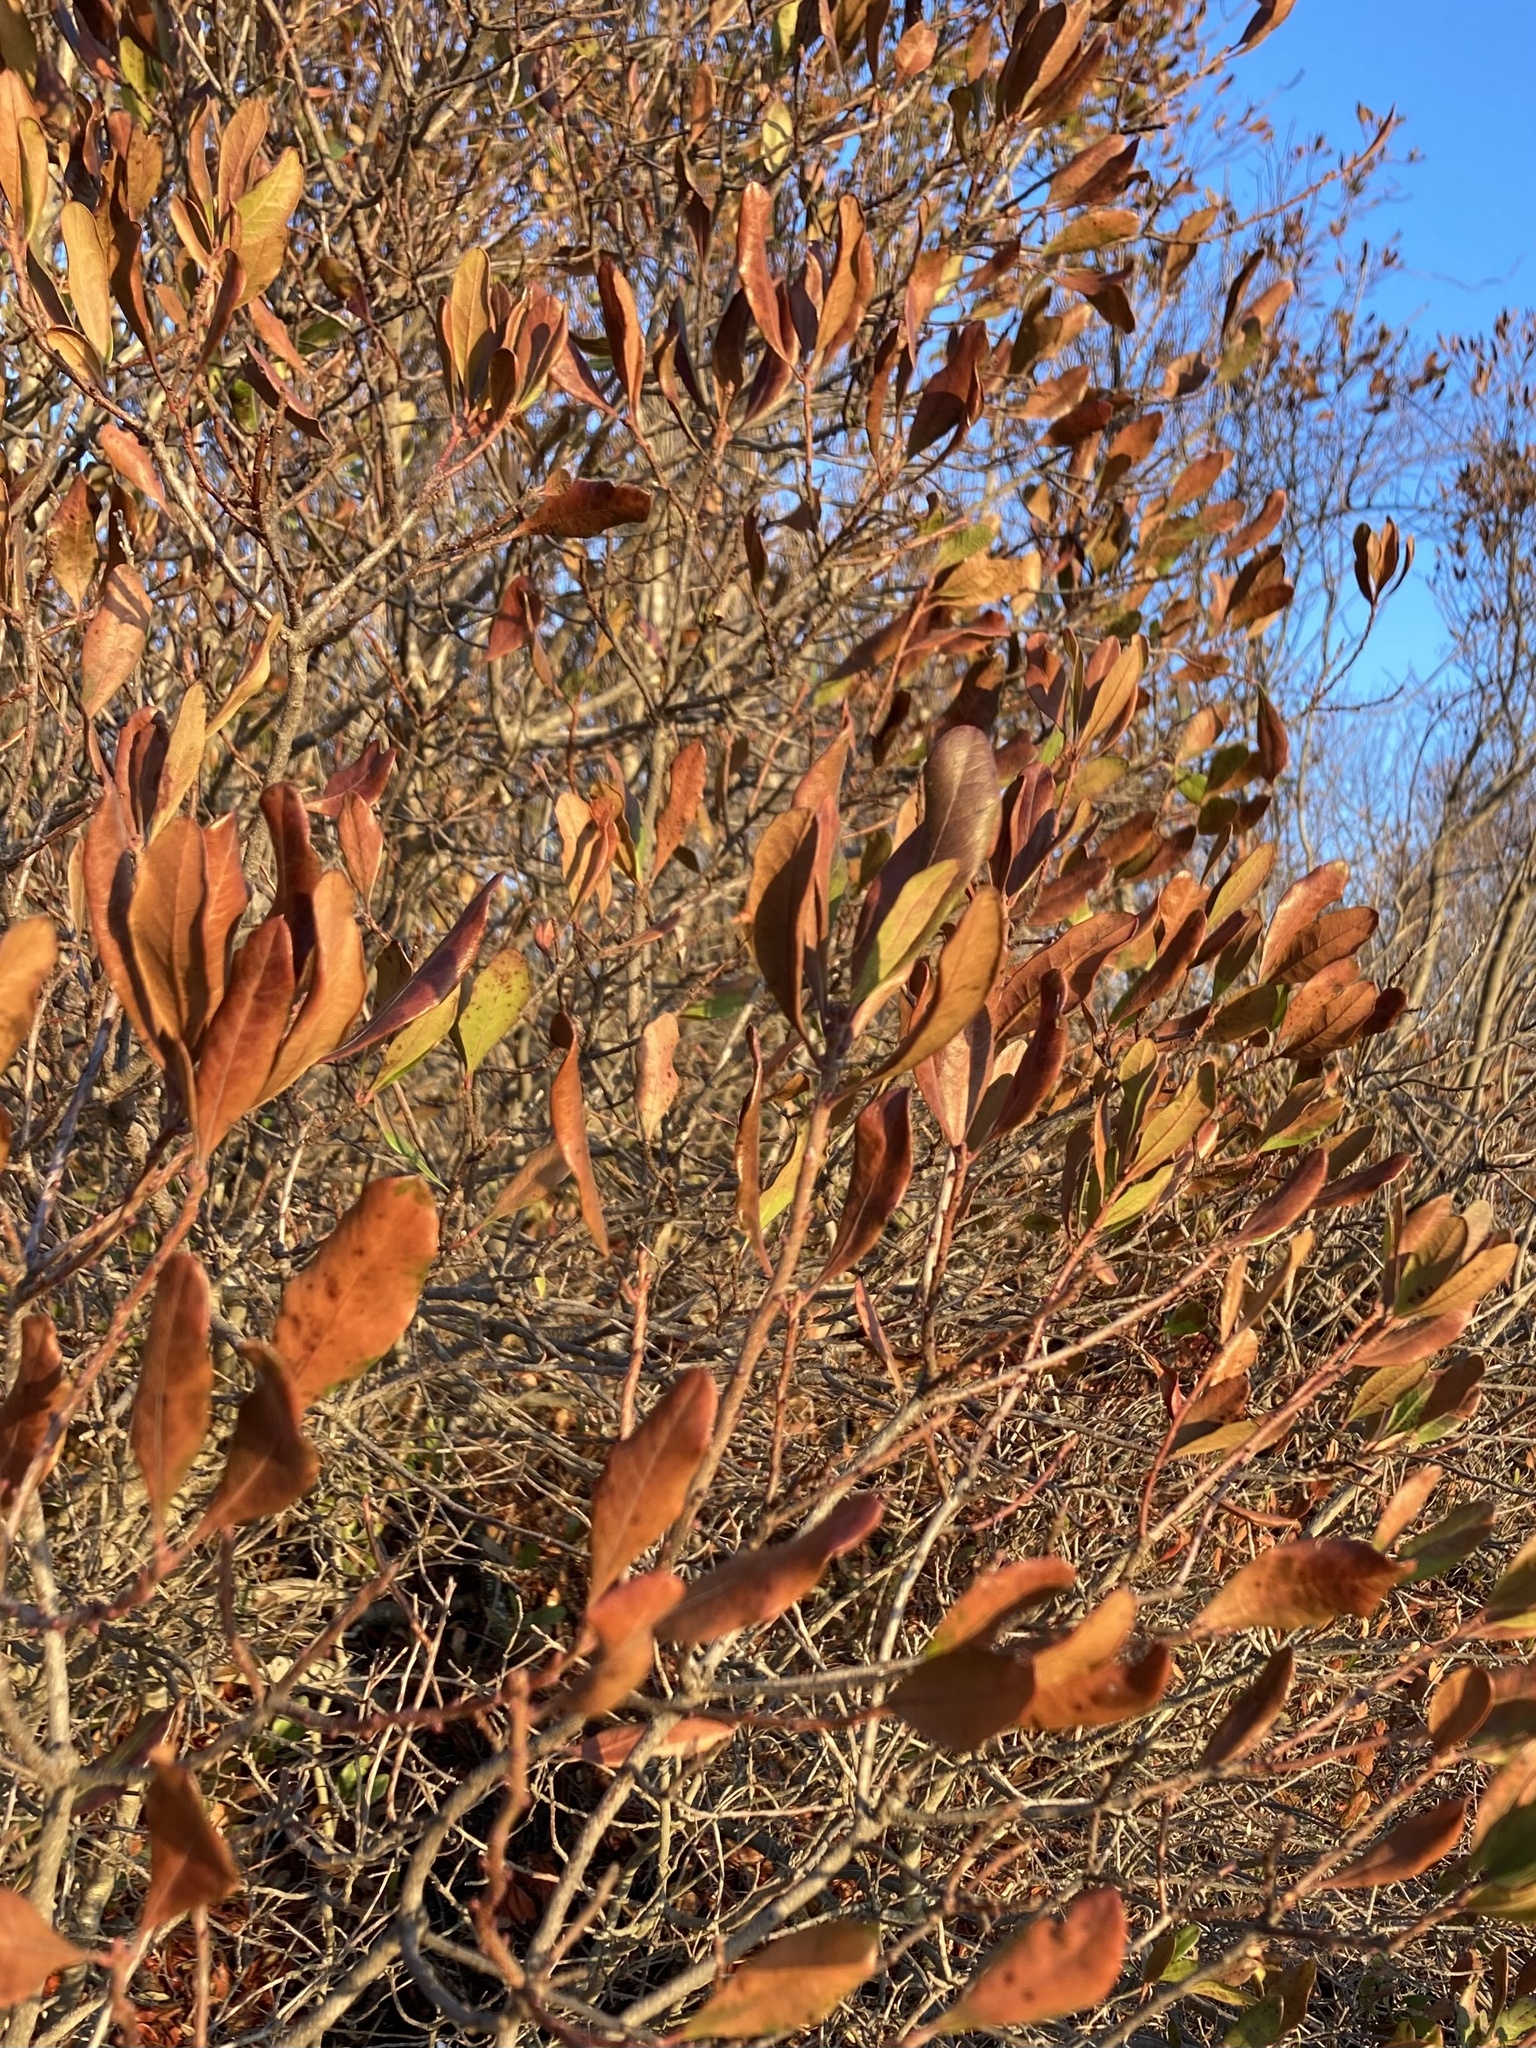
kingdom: Plantae
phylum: Tracheophyta
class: Magnoliopsida
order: Fagales
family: Myricaceae
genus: Morella
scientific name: Morella pensylvanica
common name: Northern bayberry
